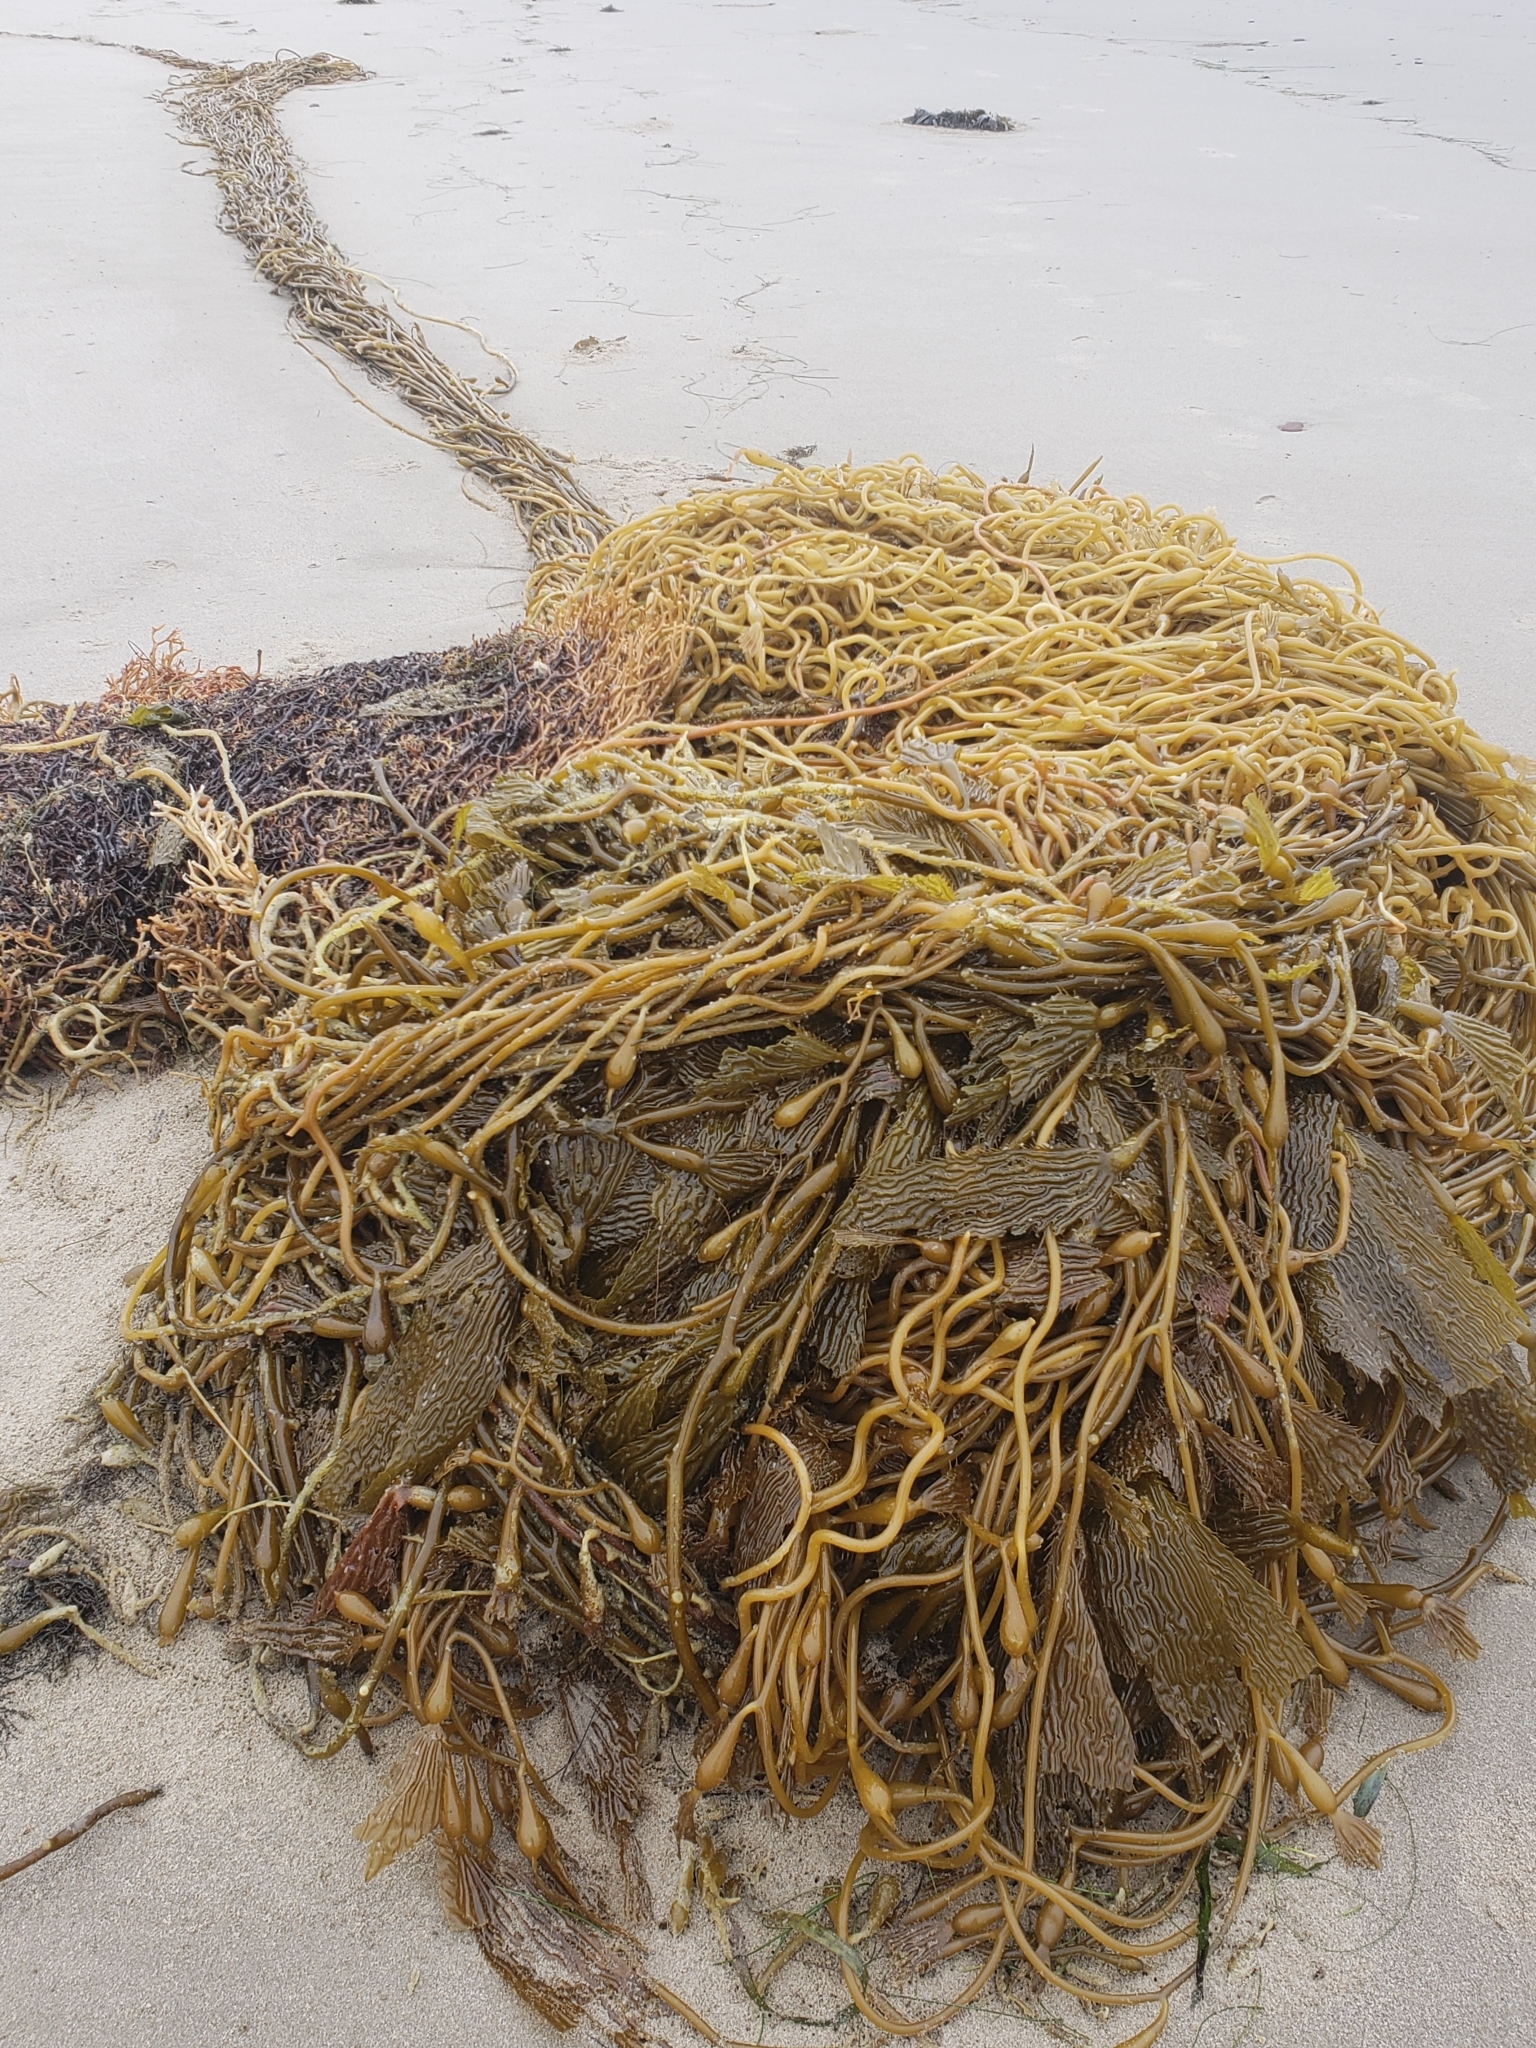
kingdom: Chromista
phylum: Ochrophyta
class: Phaeophyceae
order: Laminariales
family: Laminariaceae
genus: Macrocystis
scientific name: Macrocystis pyrifera
